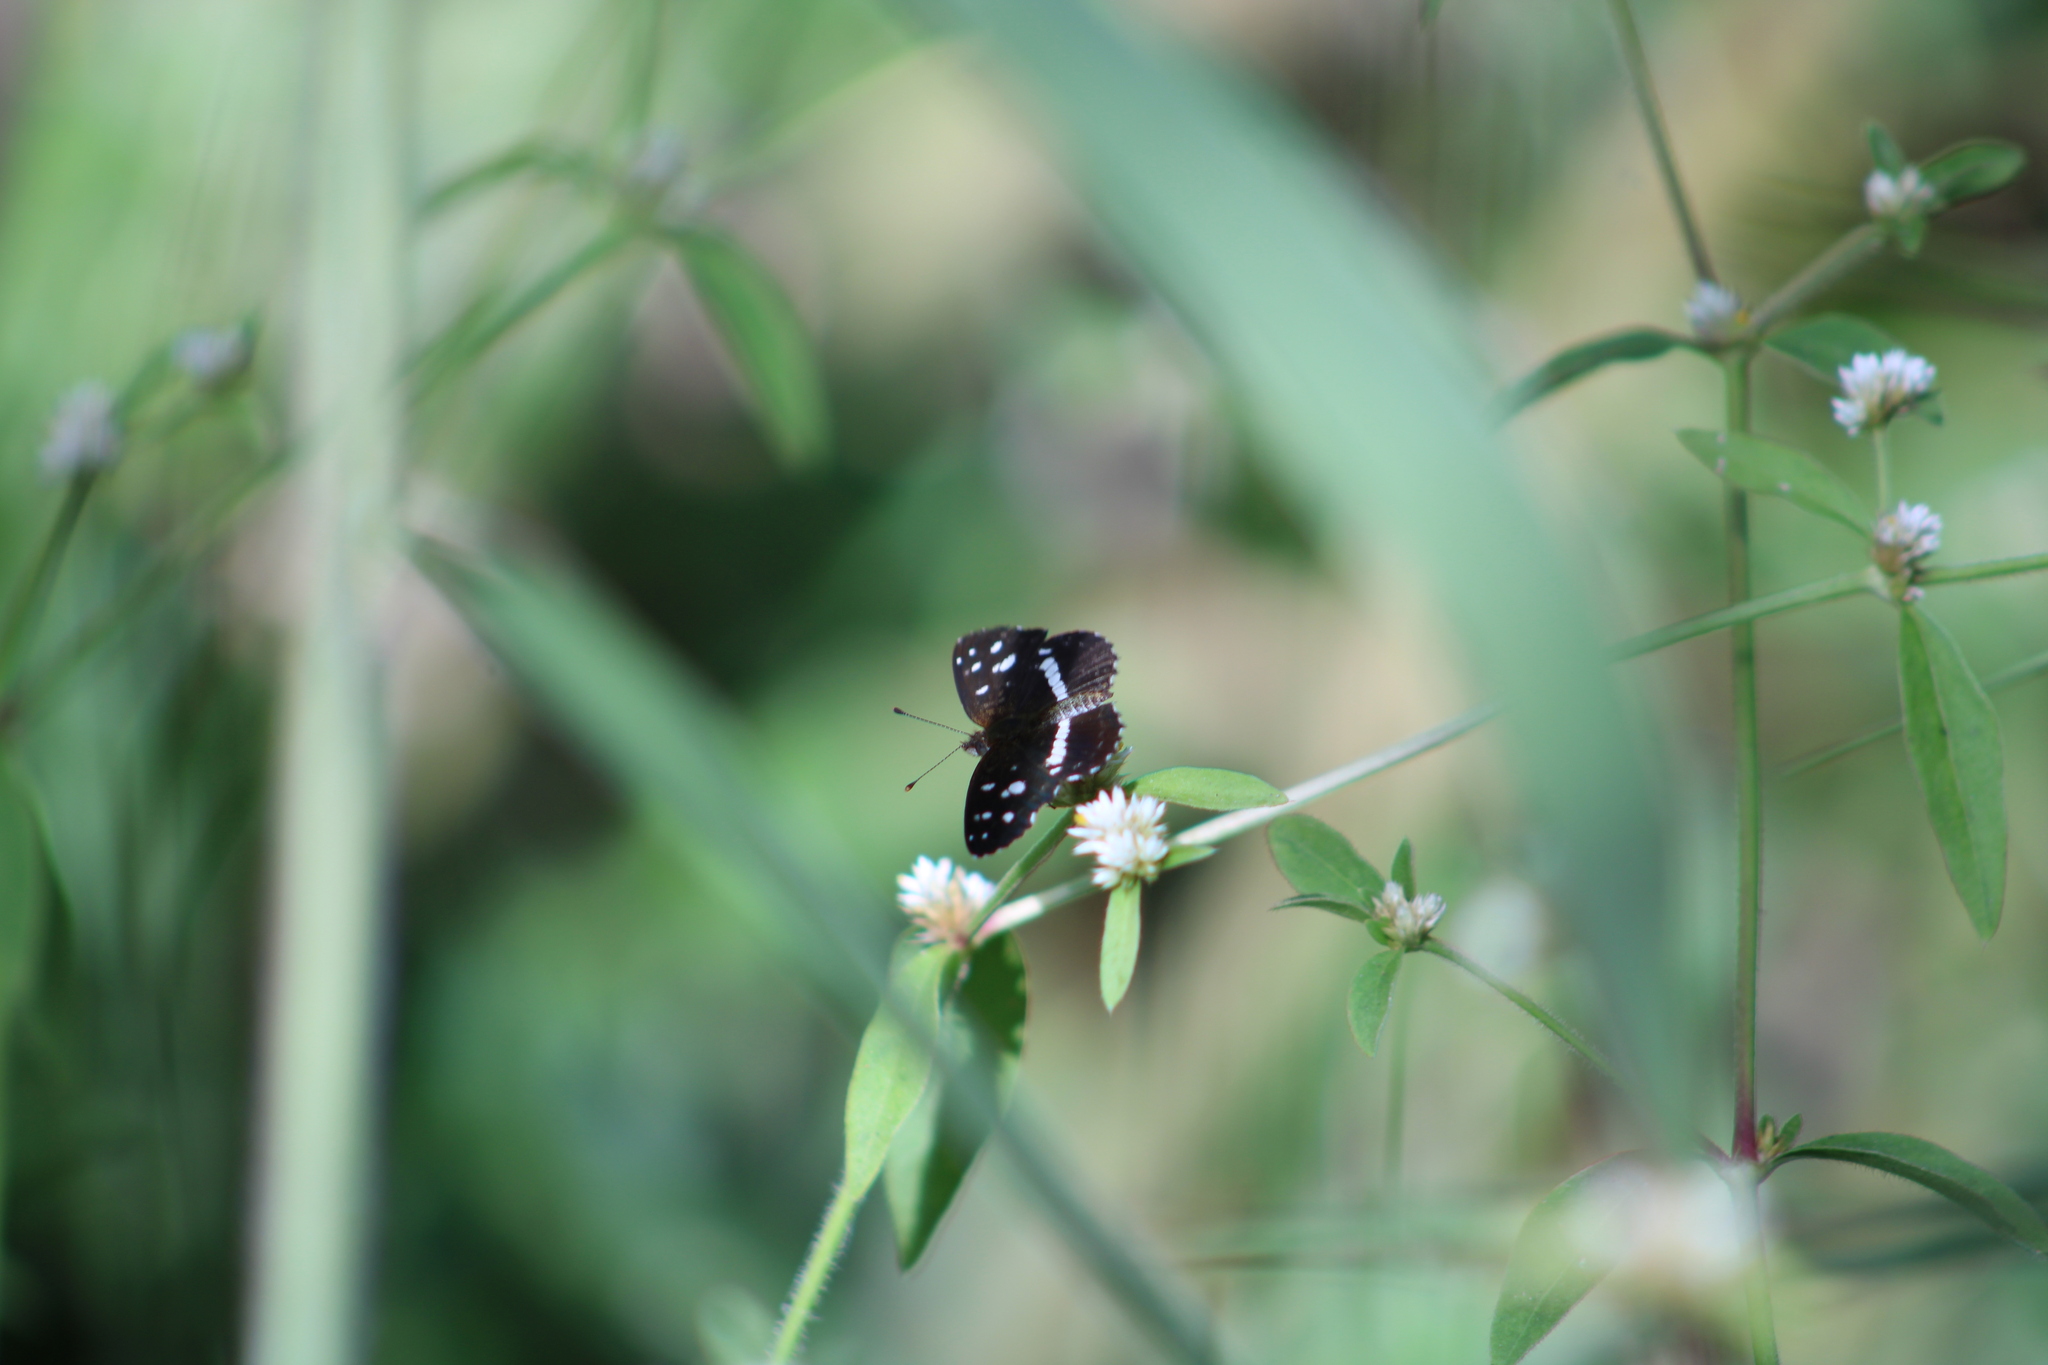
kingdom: Animalia
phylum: Arthropoda
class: Insecta
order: Lepidoptera
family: Nymphalidae
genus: Ortilia
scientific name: Ortilia ithra
